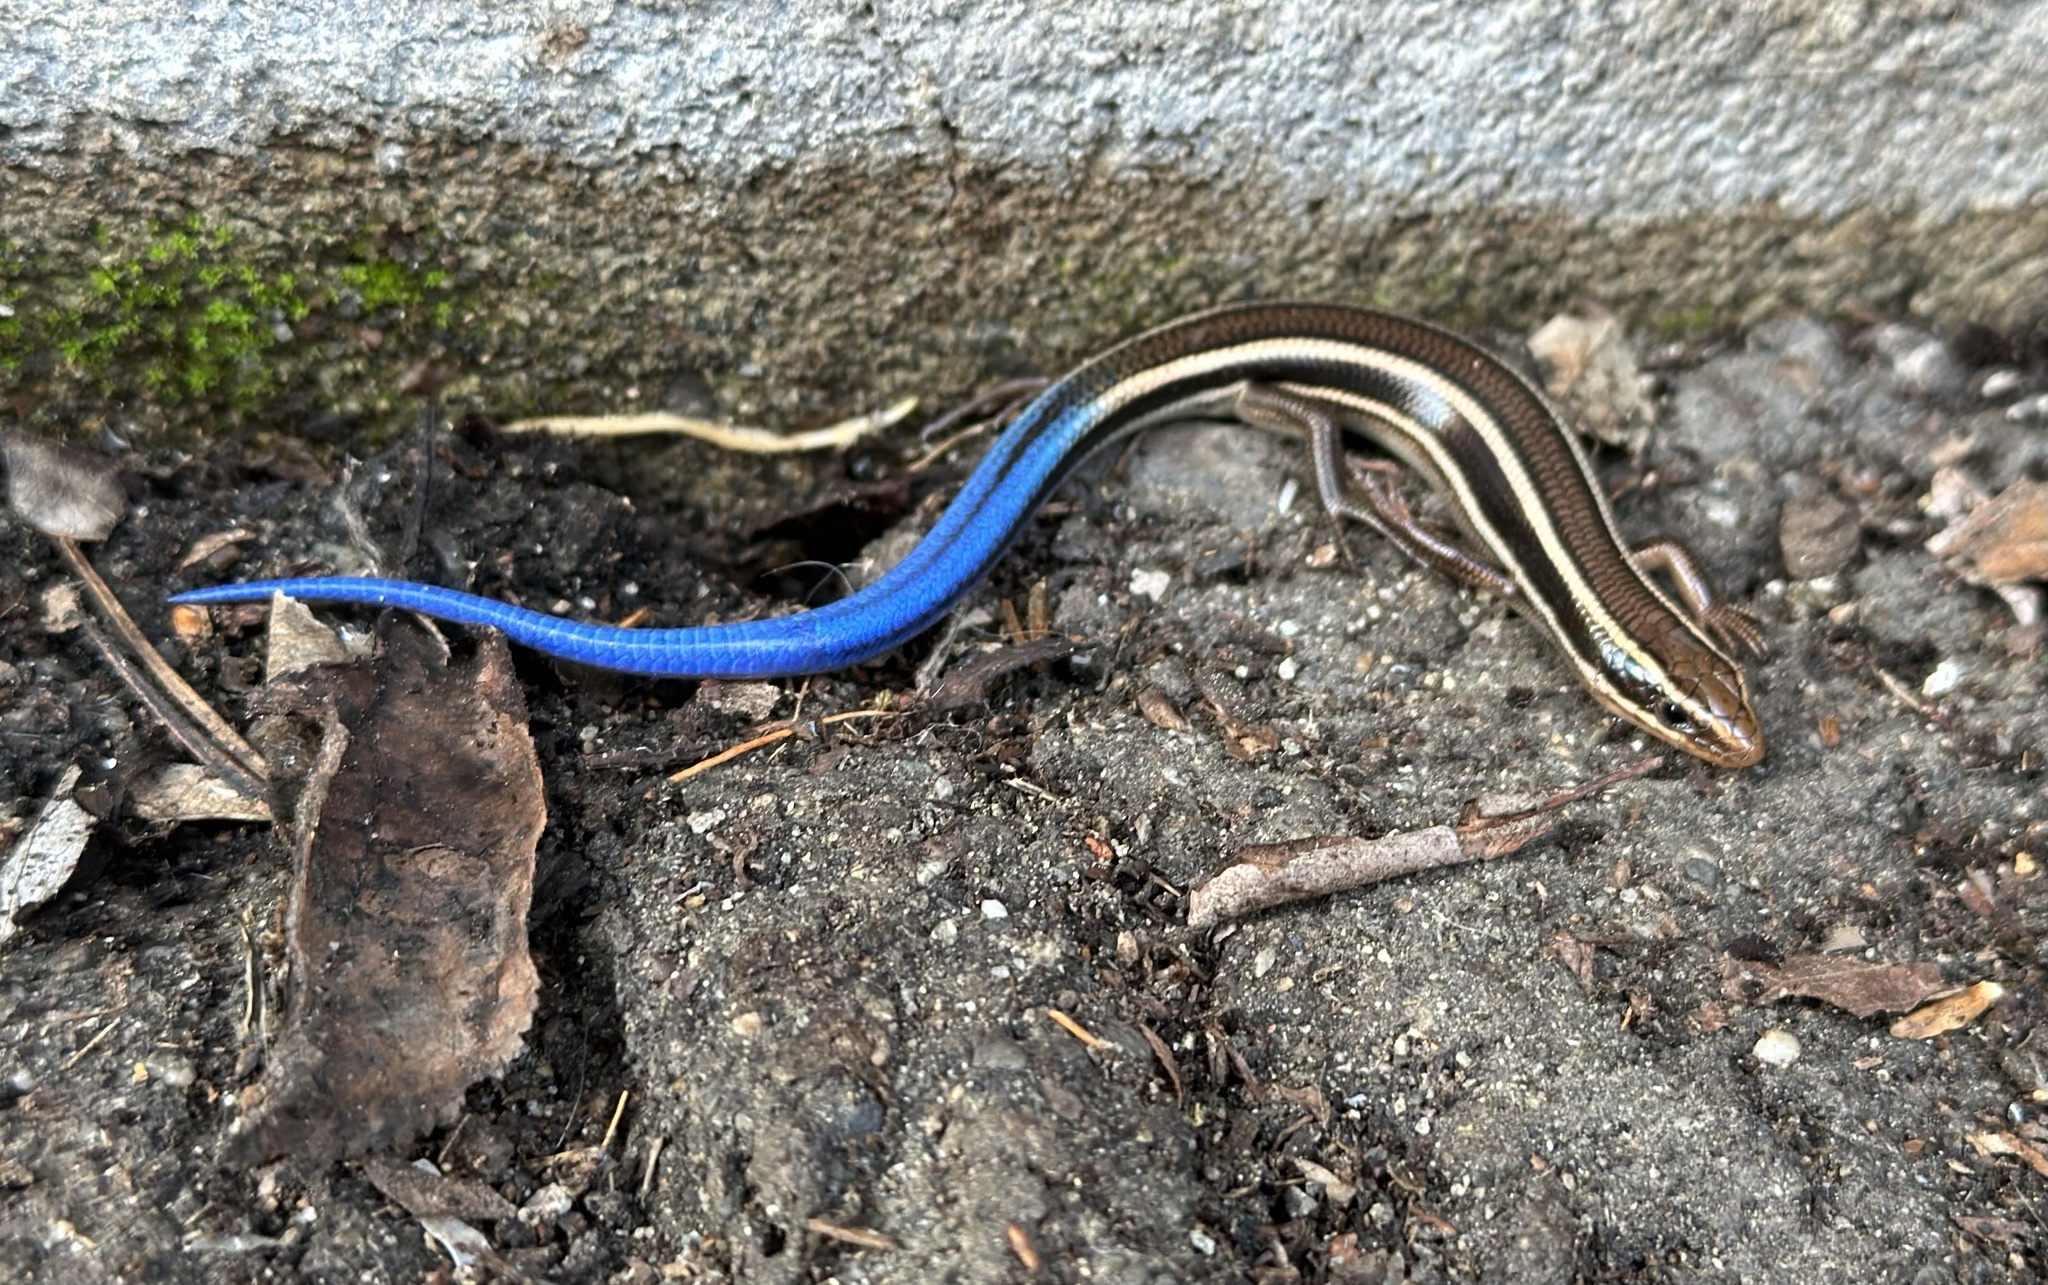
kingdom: Animalia
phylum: Chordata
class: Squamata
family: Scincidae
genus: Plestiodon
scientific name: Plestiodon skiltonianus
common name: Coronado island skink [interparietalis]
